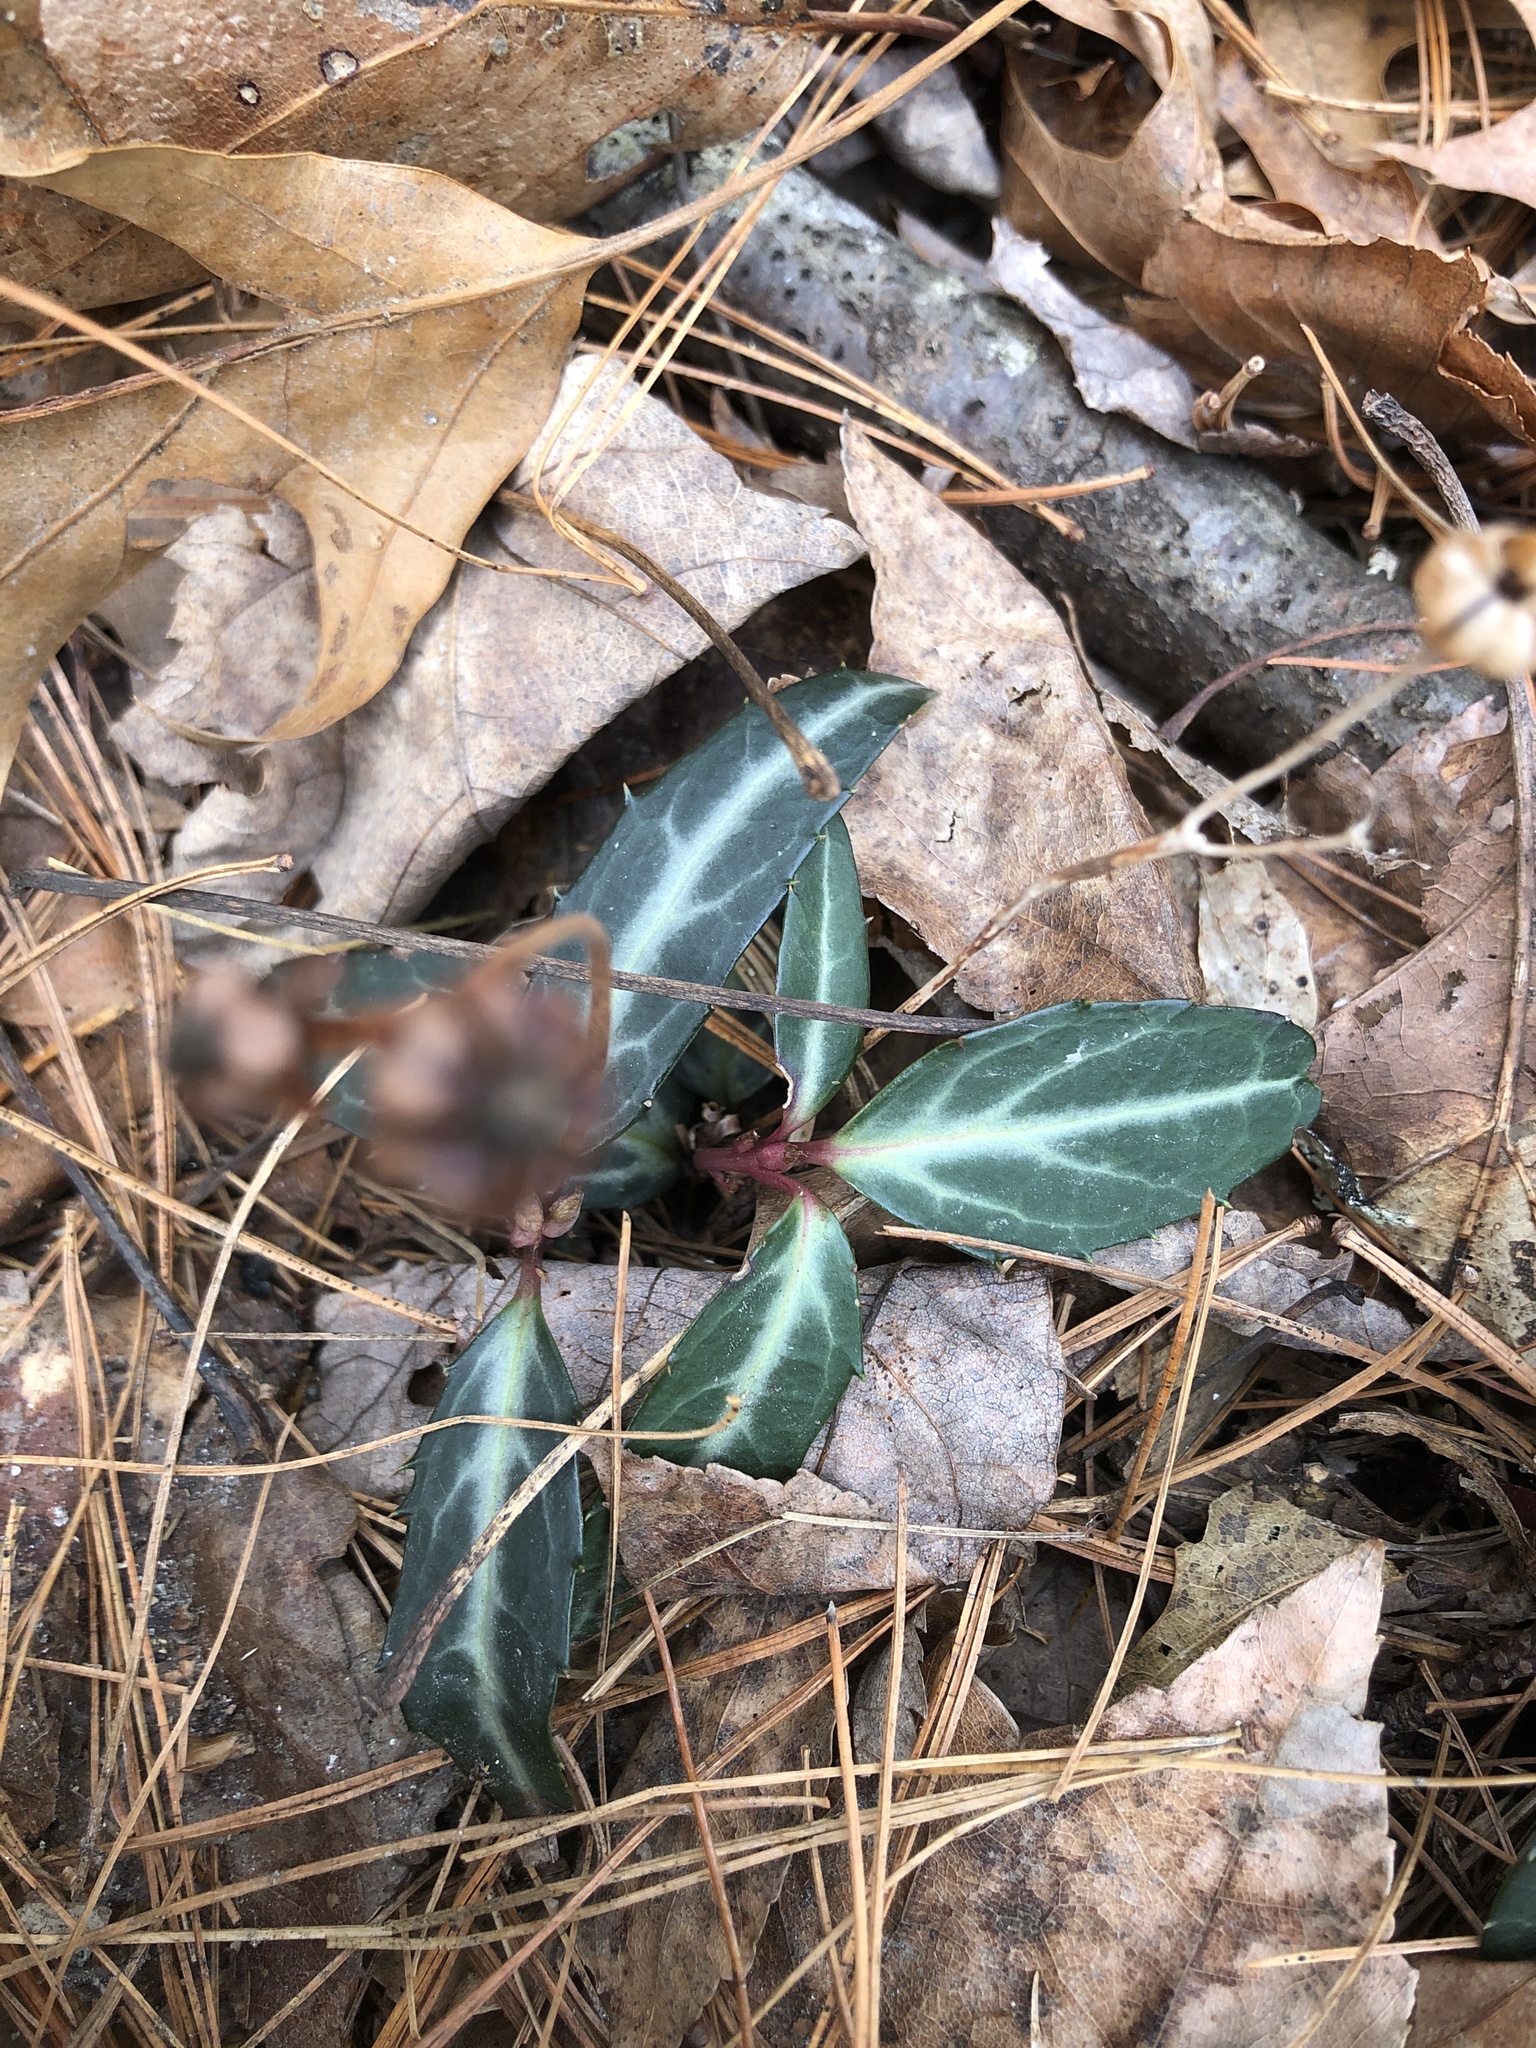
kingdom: Plantae
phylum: Tracheophyta
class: Magnoliopsida
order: Ericales
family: Ericaceae
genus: Chimaphila
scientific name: Chimaphila maculata
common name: Spotted pipsissewa
